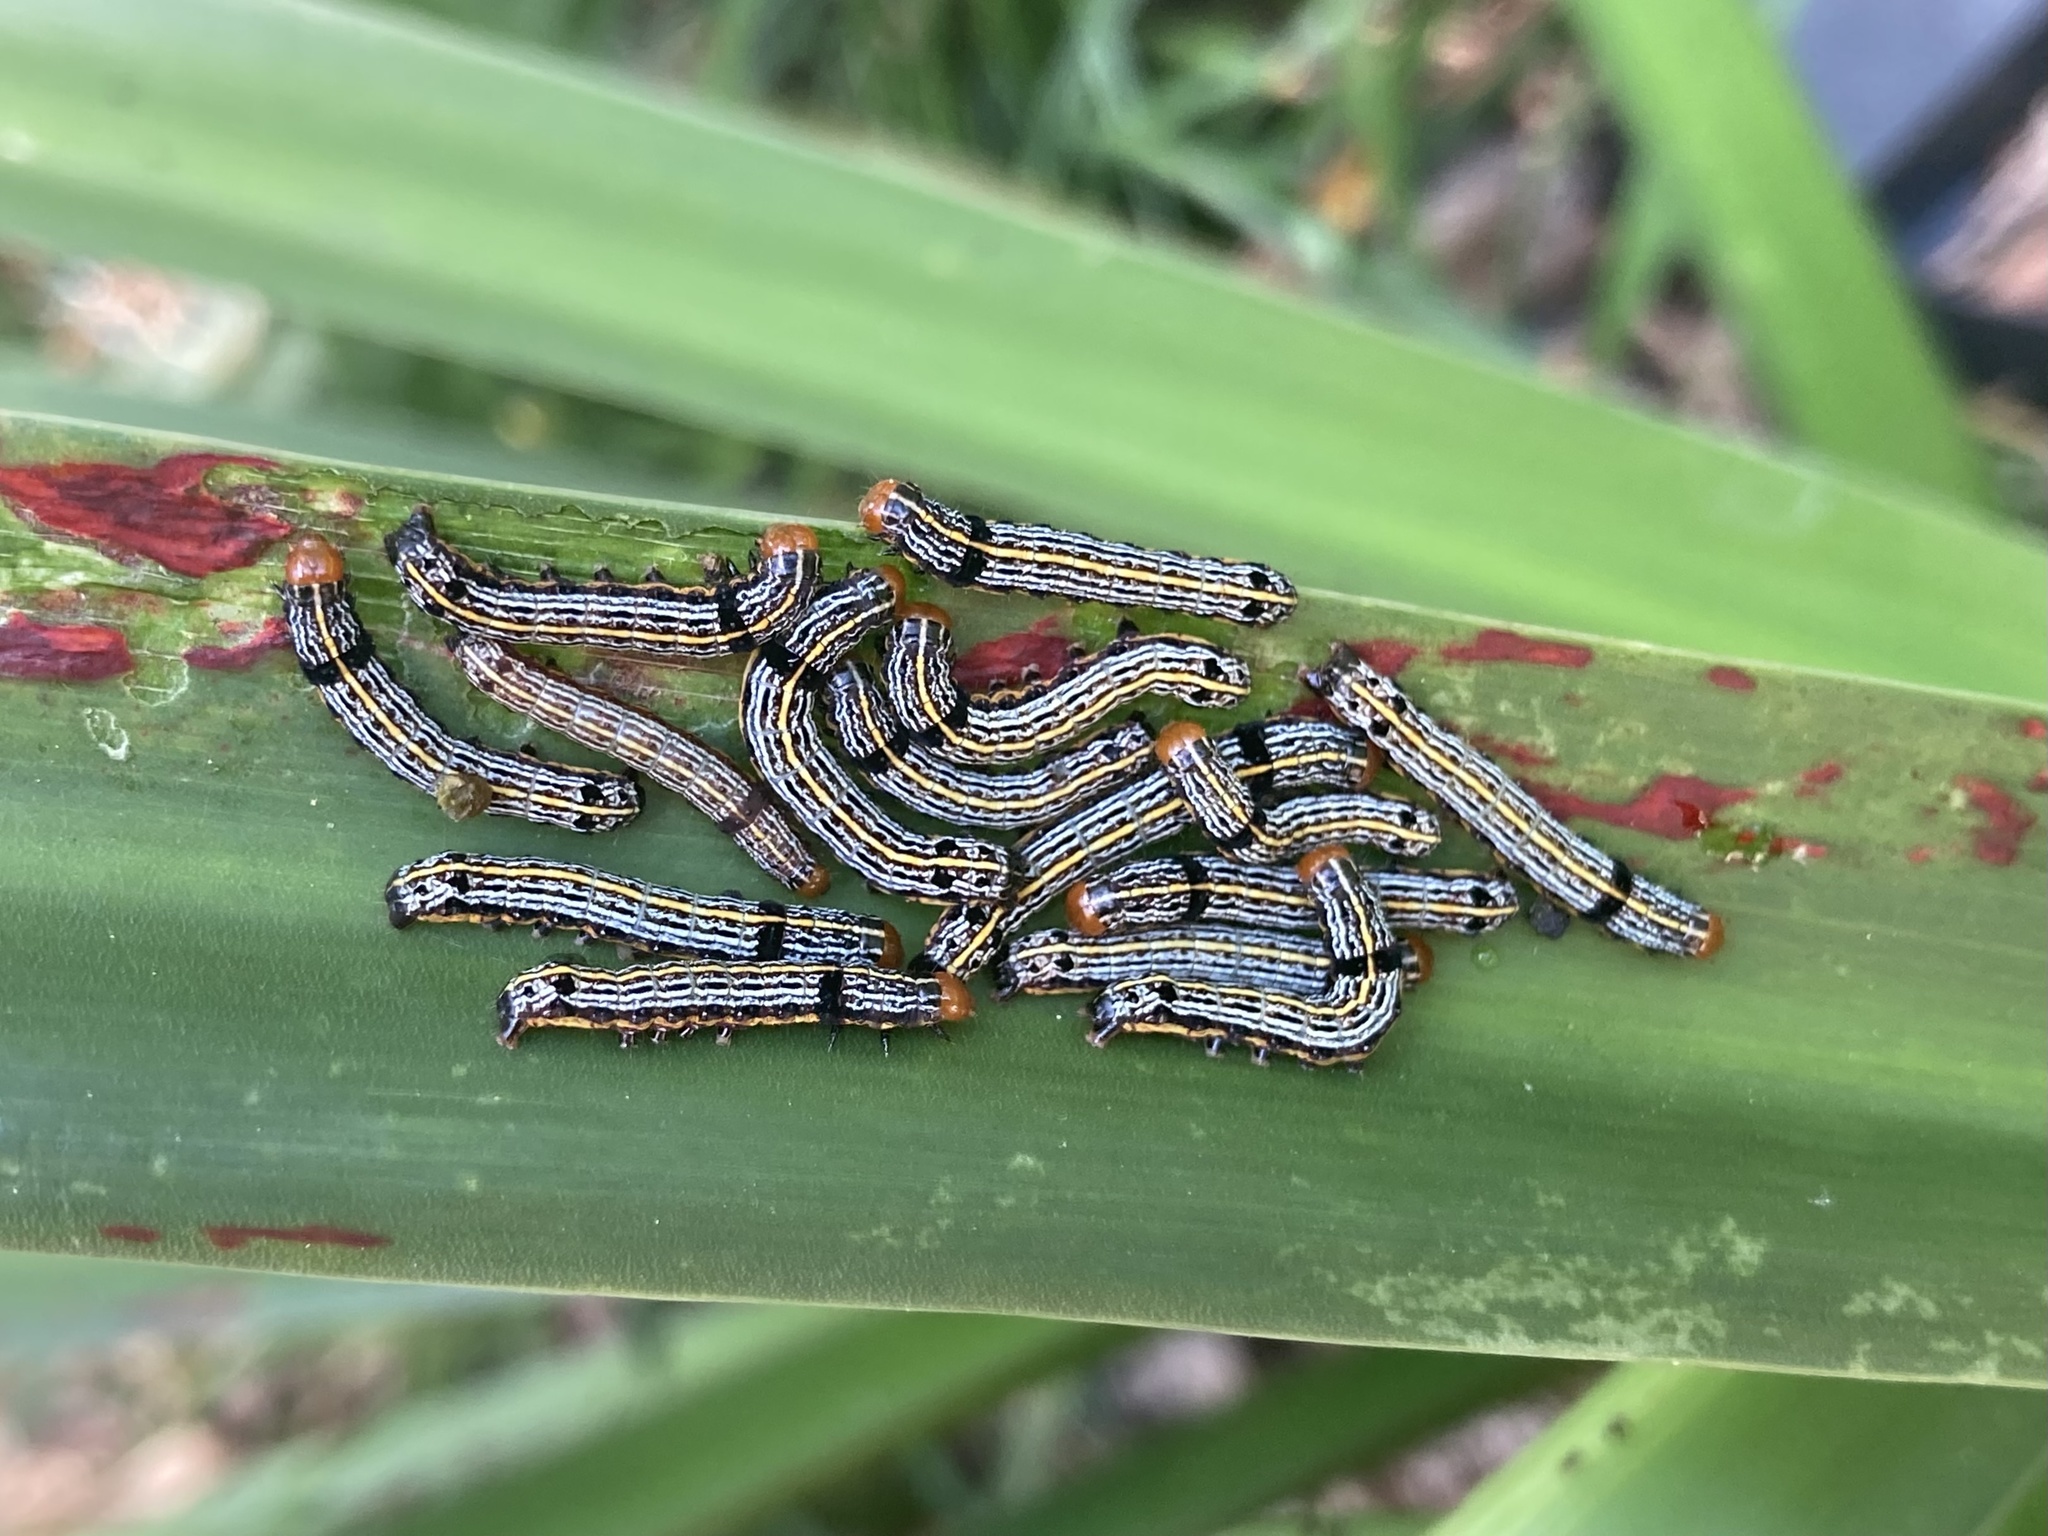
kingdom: Animalia
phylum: Arthropoda
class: Insecta
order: Lepidoptera
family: Noctuidae
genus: Spodoptera
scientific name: Spodoptera picta
